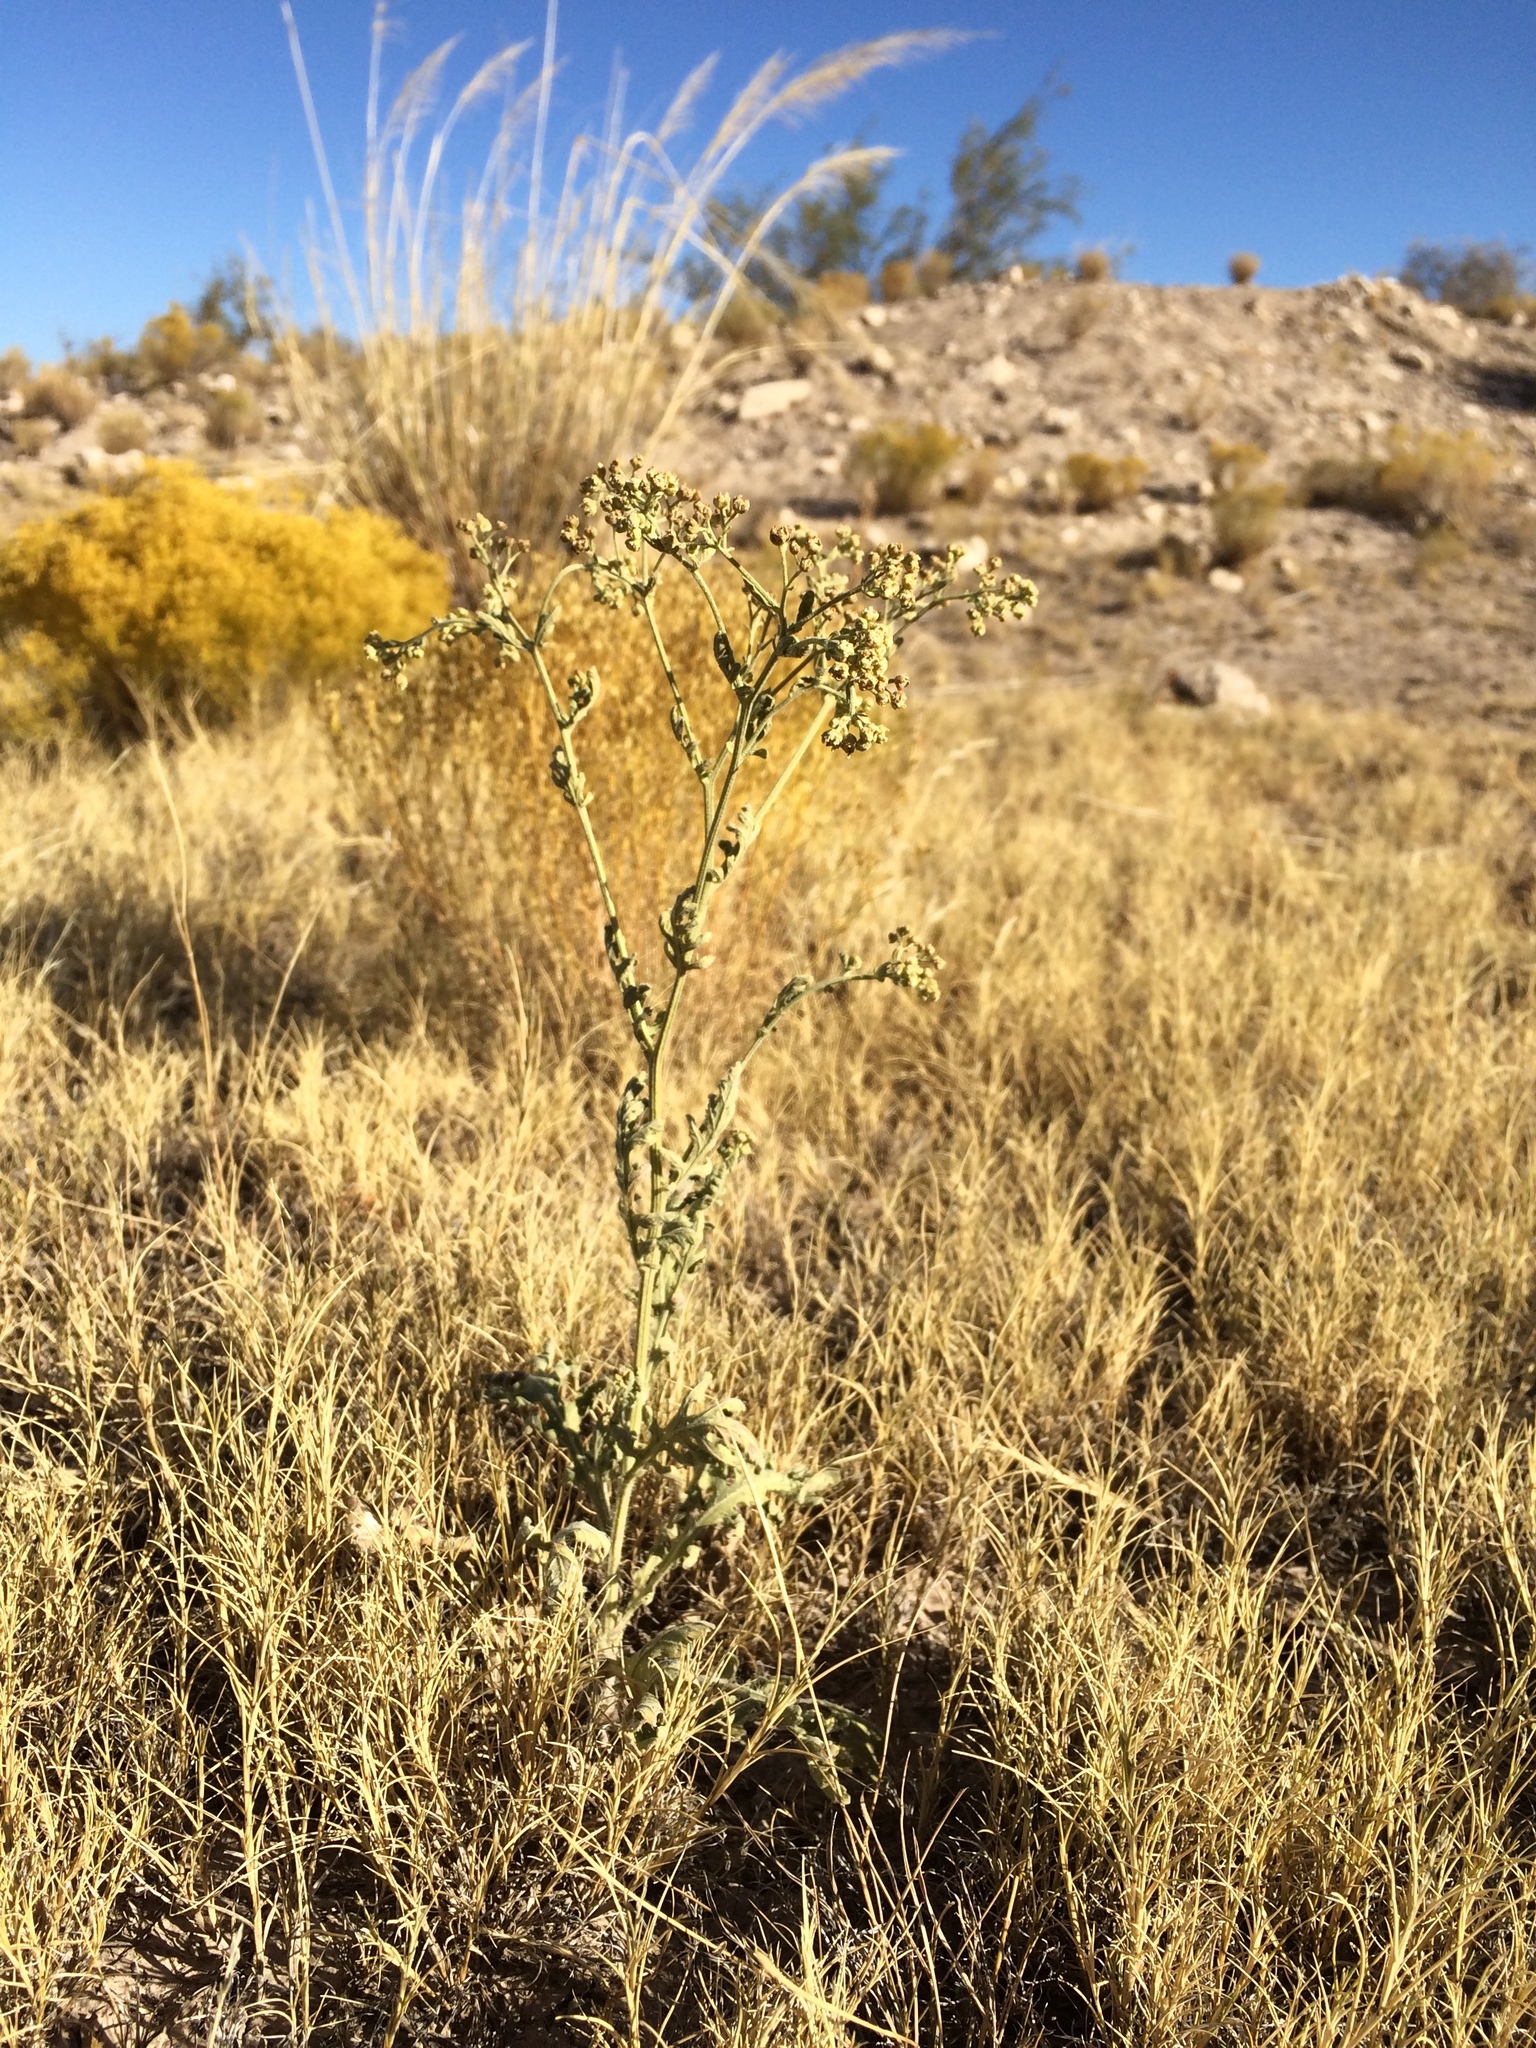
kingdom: Plantae
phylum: Tracheophyta
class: Magnoliopsida
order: Asterales
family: Asteraceae
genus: Parthenium
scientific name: Parthenium confertum
